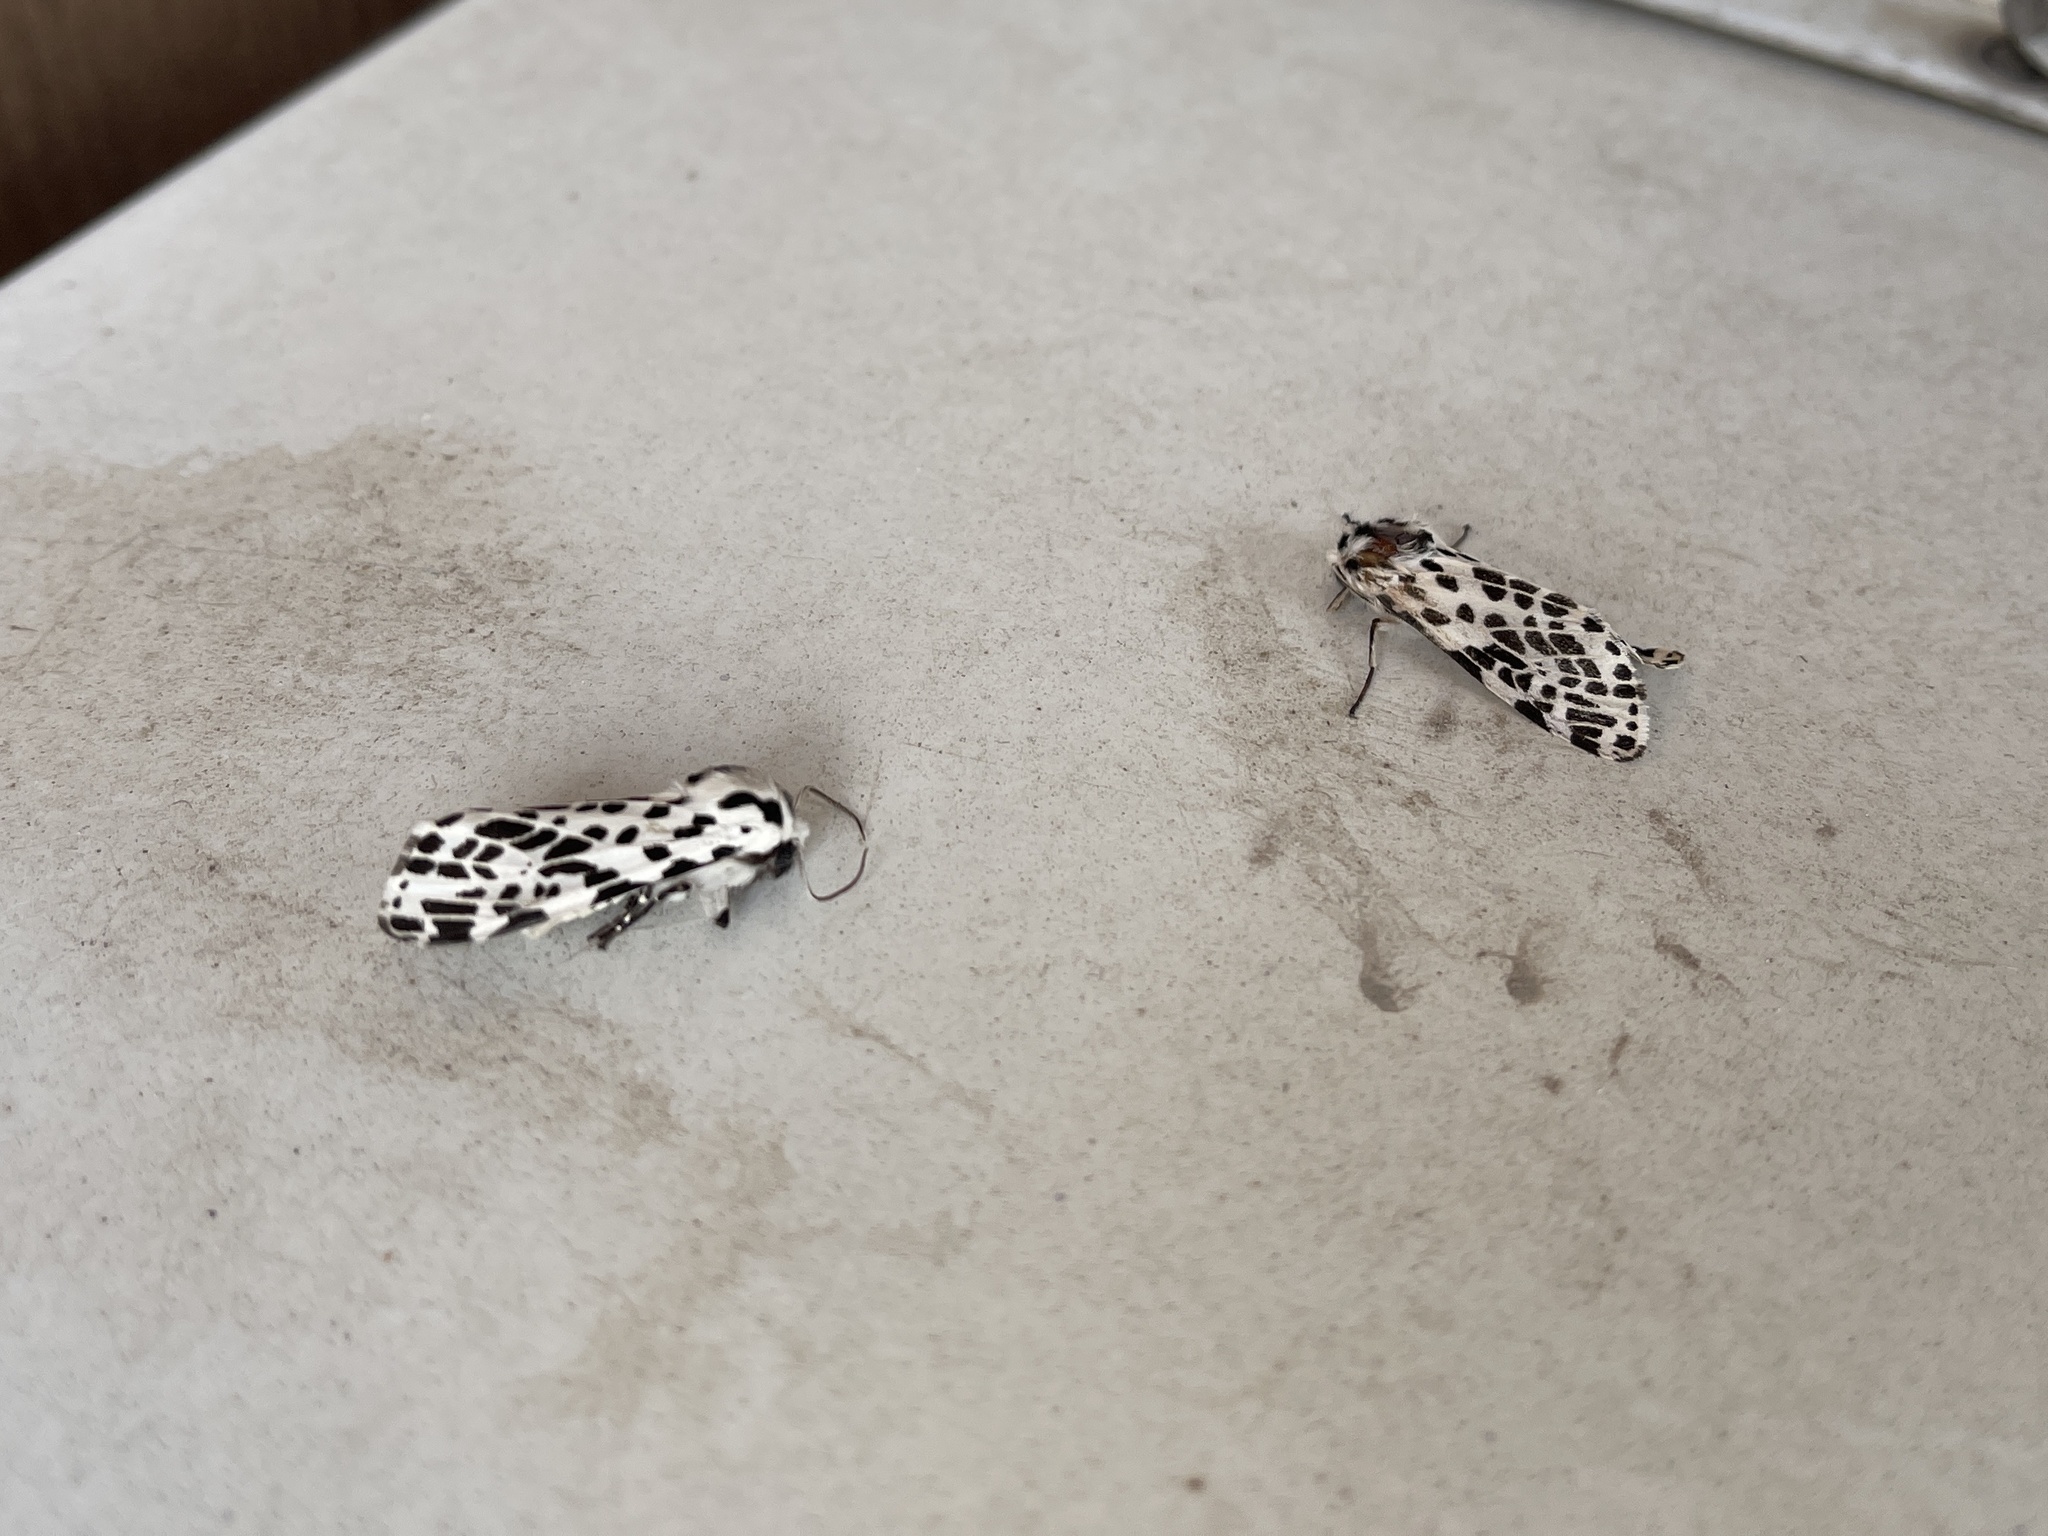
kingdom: Animalia
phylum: Arthropoda
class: Insecta
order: Lepidoptera
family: Erebidae
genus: Hypercompe
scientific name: Hypercompe permaculata
